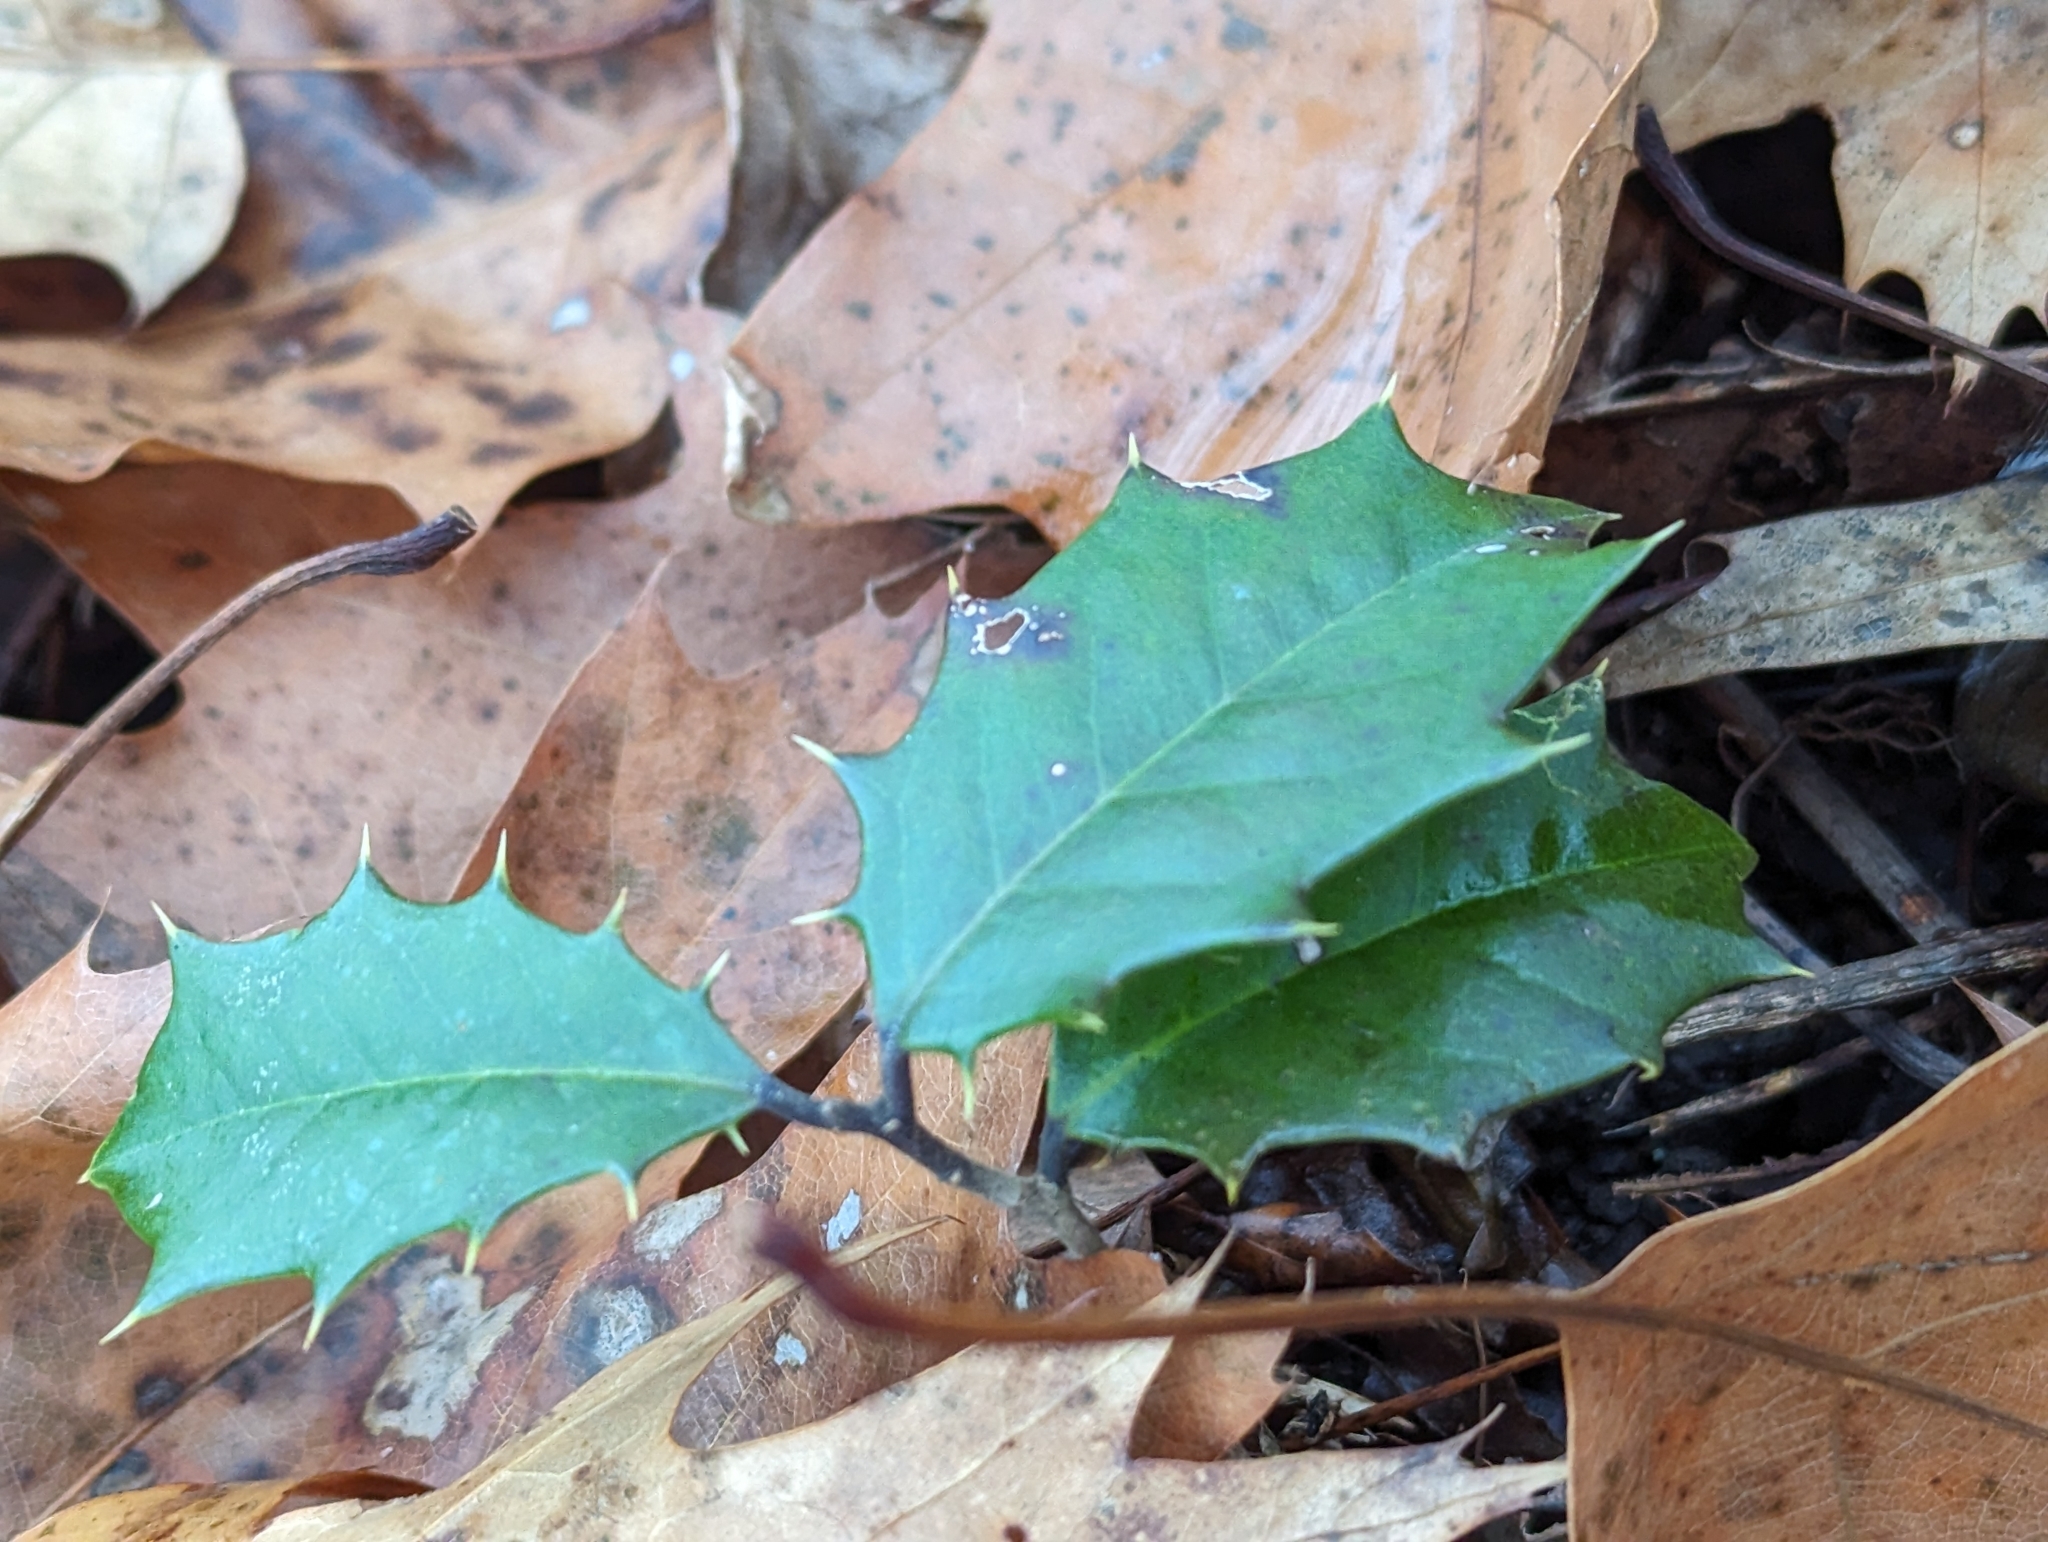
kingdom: Plantae
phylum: Tracheophyta
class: Magnoliopsida
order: Aquifoliales
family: Aquifoliaceae
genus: Ilex
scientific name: Ilex opaca
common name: American holly
